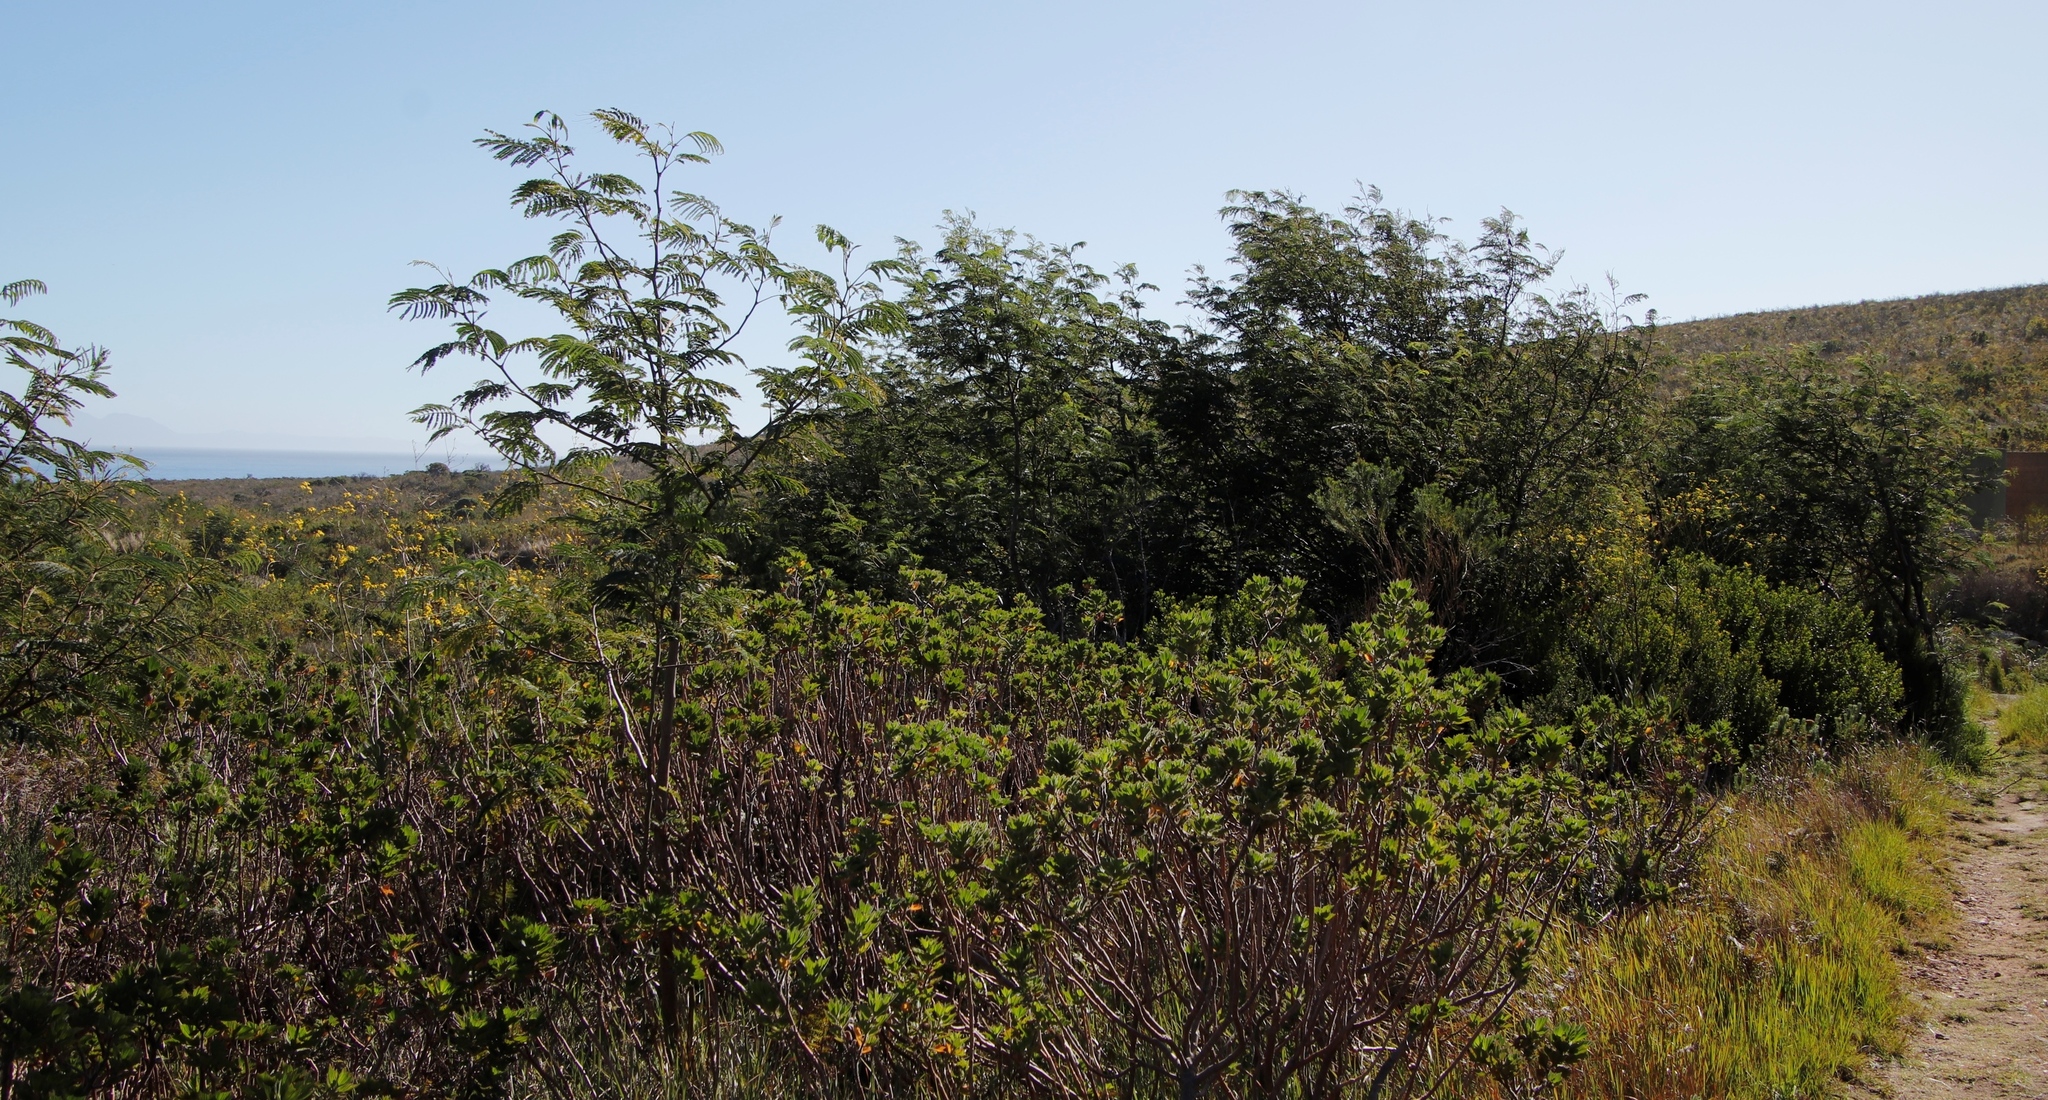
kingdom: Plantae
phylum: Tracheophyta
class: Magnoliopsida
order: Fabales
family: Fabaceae
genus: Paraserianthes
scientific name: Paraserianthes lophantha
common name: Plume albizia
